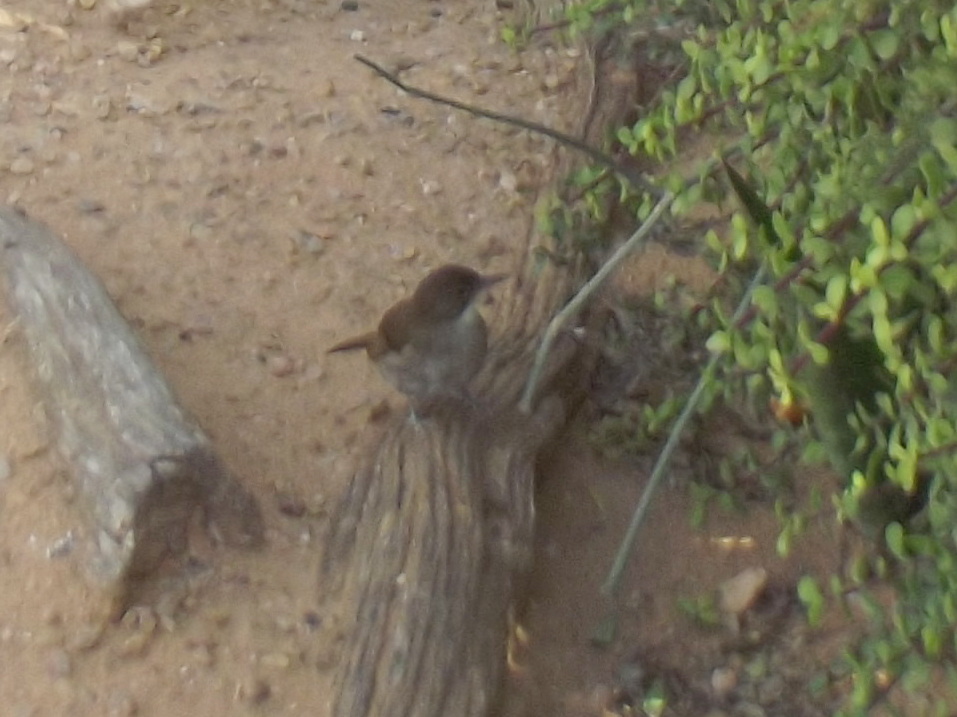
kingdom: Animalia
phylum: Chordata
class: Aves
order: Passeriformes
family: Pycnonotidae
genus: Phyllastrephus
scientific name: Phyllastrephus terrestris
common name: Terrestrial brownbul
